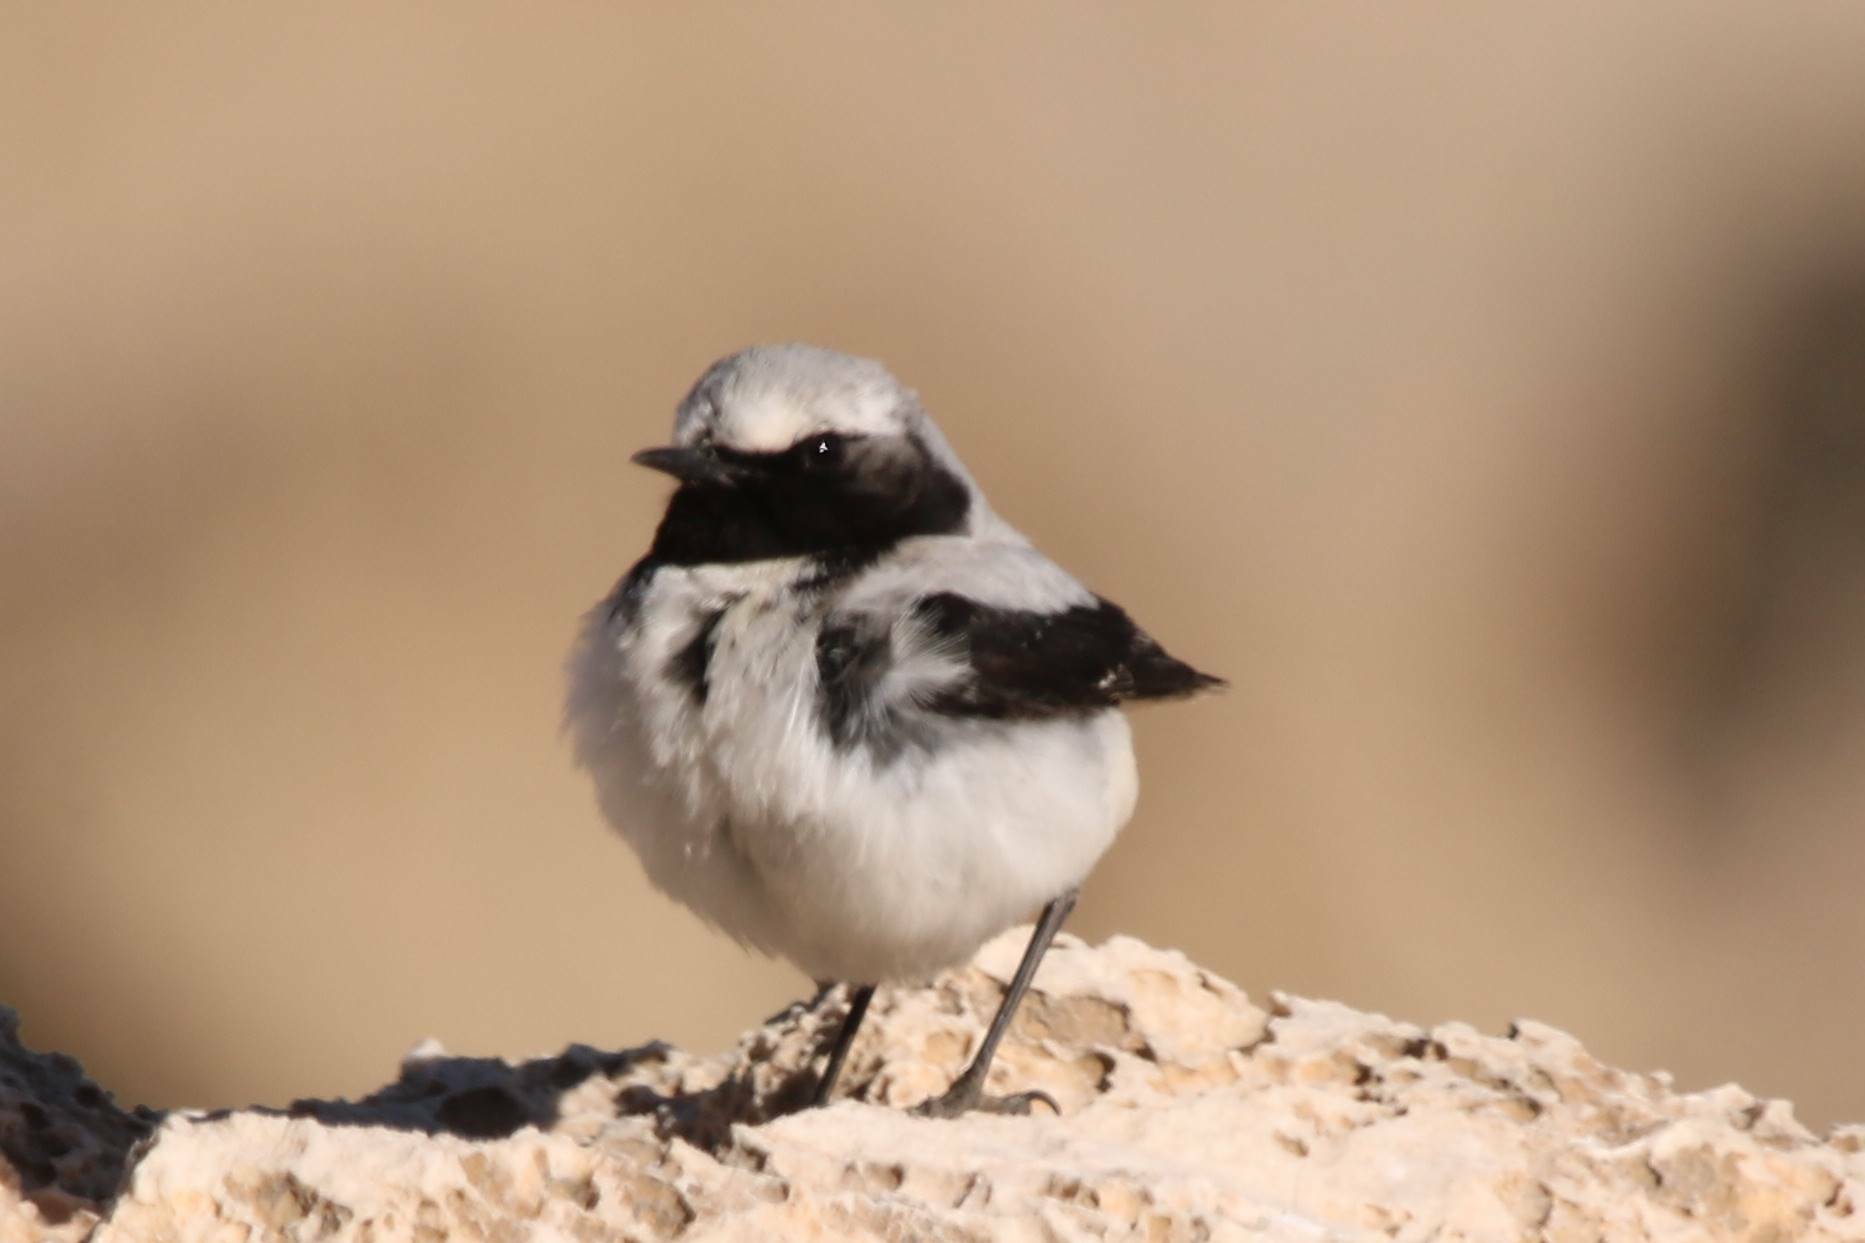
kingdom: Animalia
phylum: Chordata
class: Aves
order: Passeriformes
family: Muscicapidae
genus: Oenanthe
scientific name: Oenanthe oenanthe
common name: Northern wheatear
